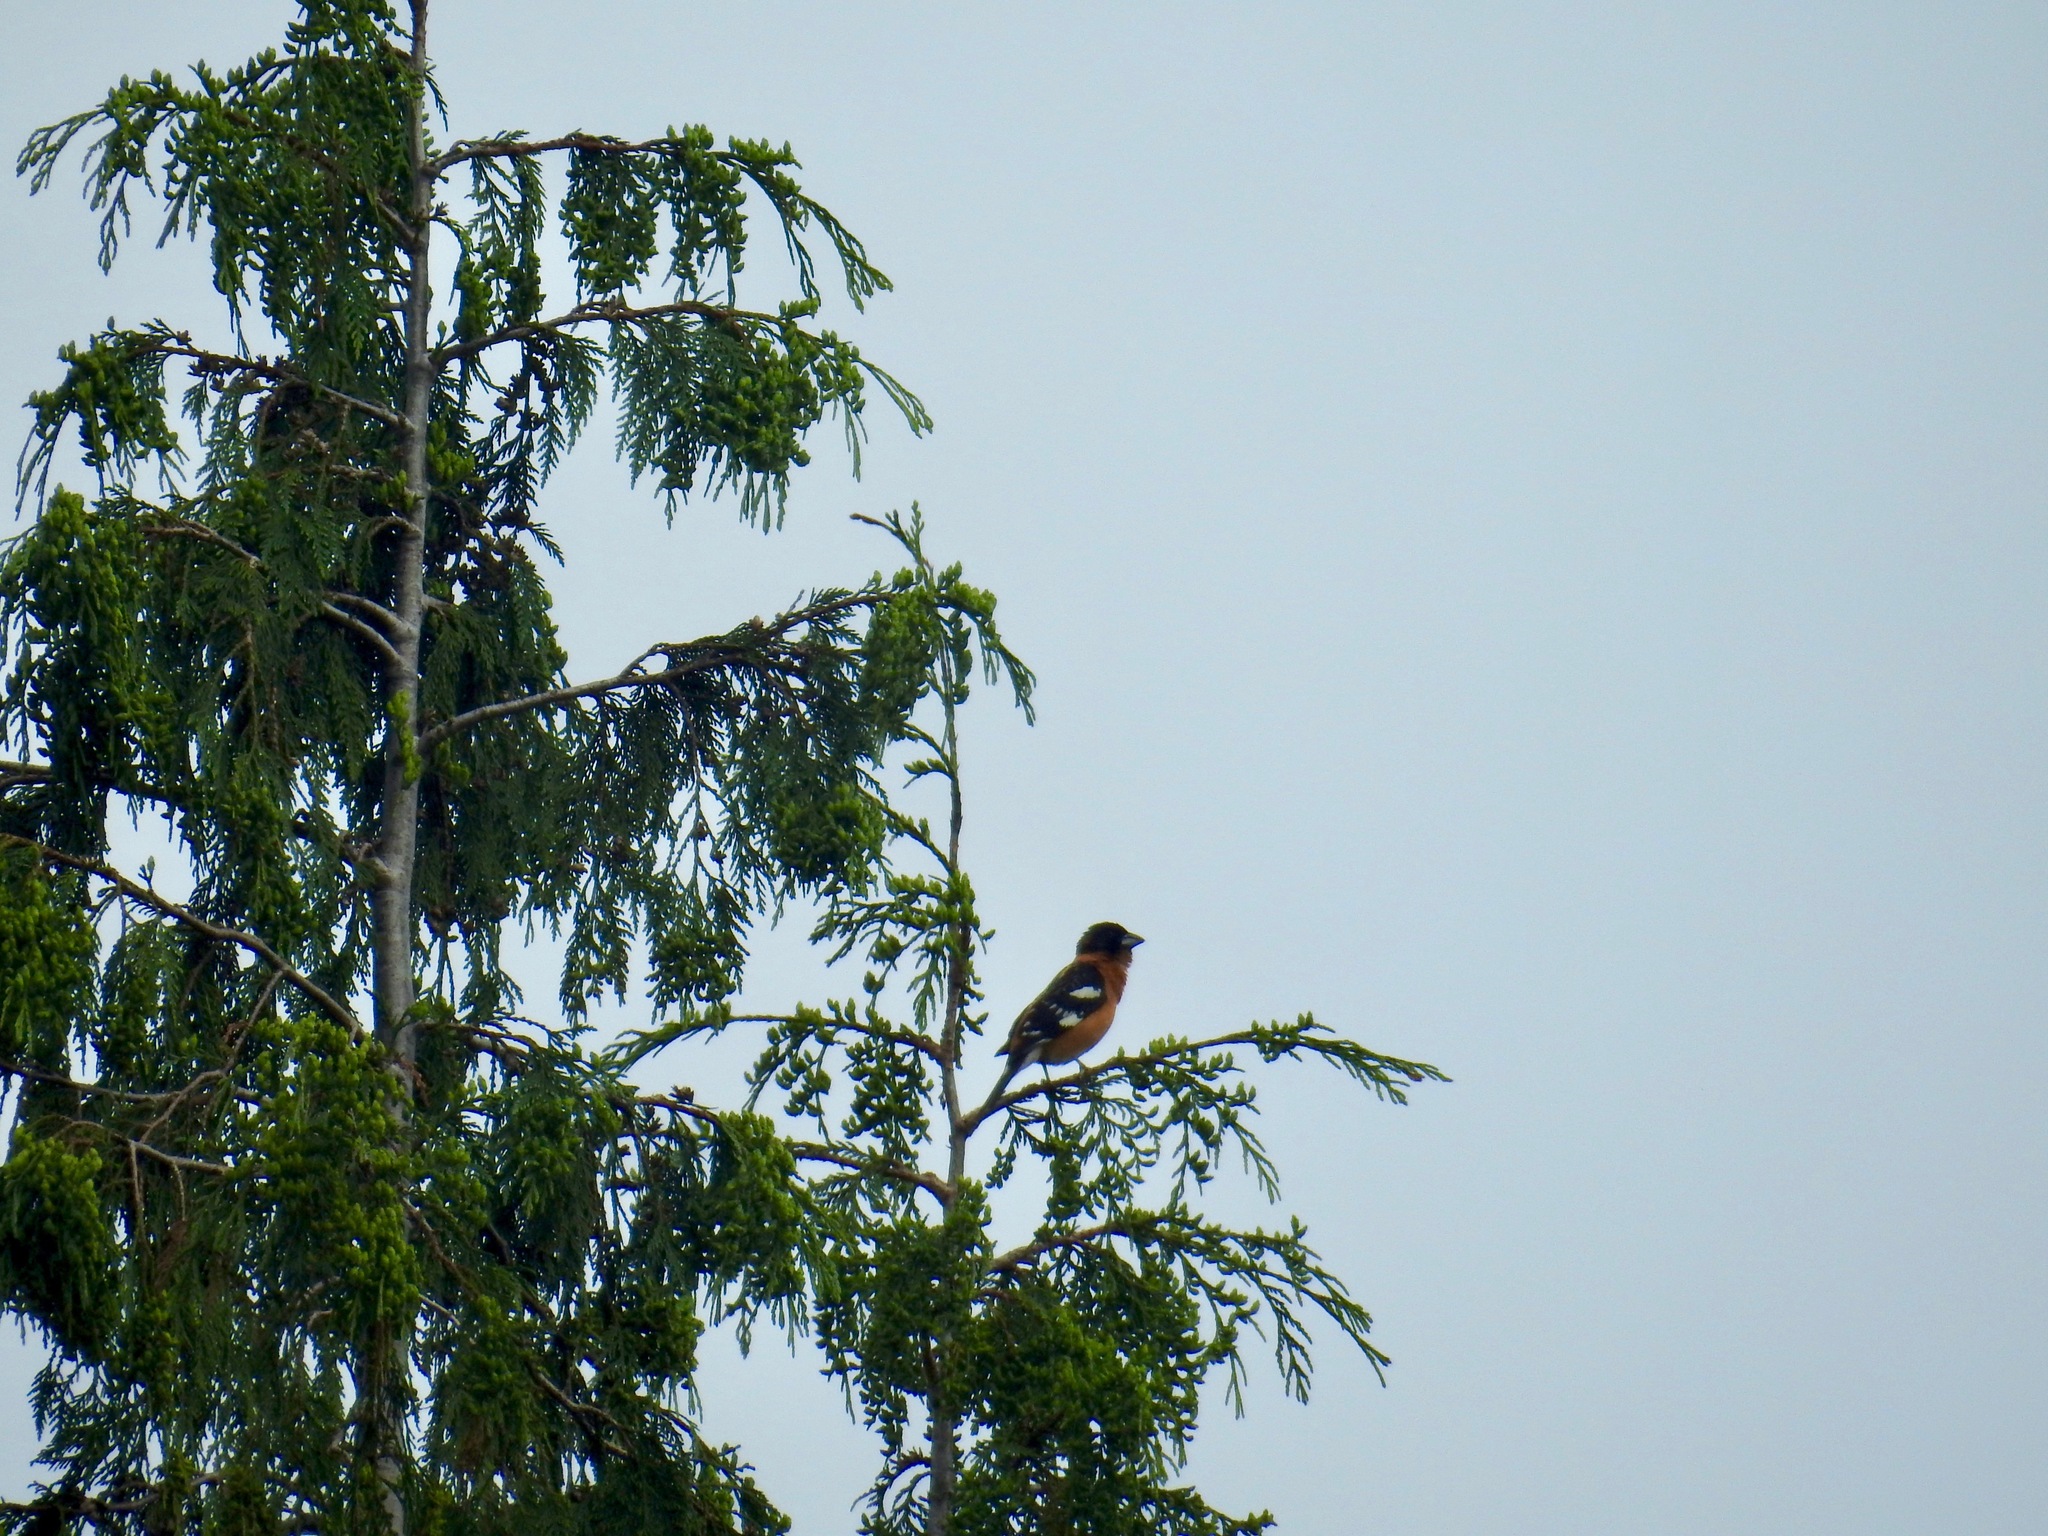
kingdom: Animalia
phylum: Chordata
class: Aves
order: Passeriformes
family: Cardinalidae
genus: Pheucticus
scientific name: Pheucticus melanocephalus
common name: Black-headed grosbeak
